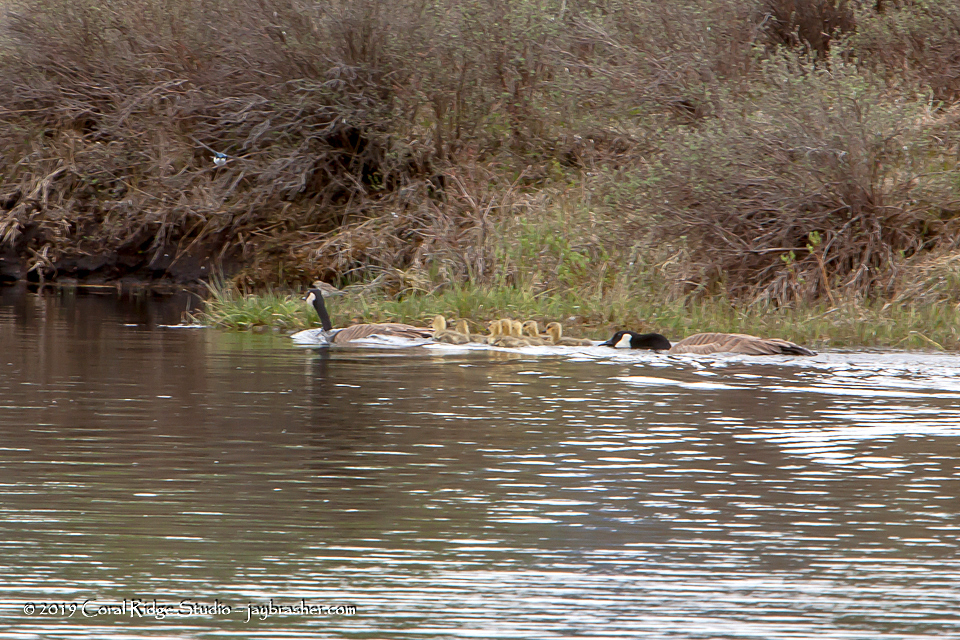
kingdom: Animalia
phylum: Chordata
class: Aves
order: Anseriformes
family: Anatidae
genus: Branta
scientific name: Branta canadensis
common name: Canada goose
